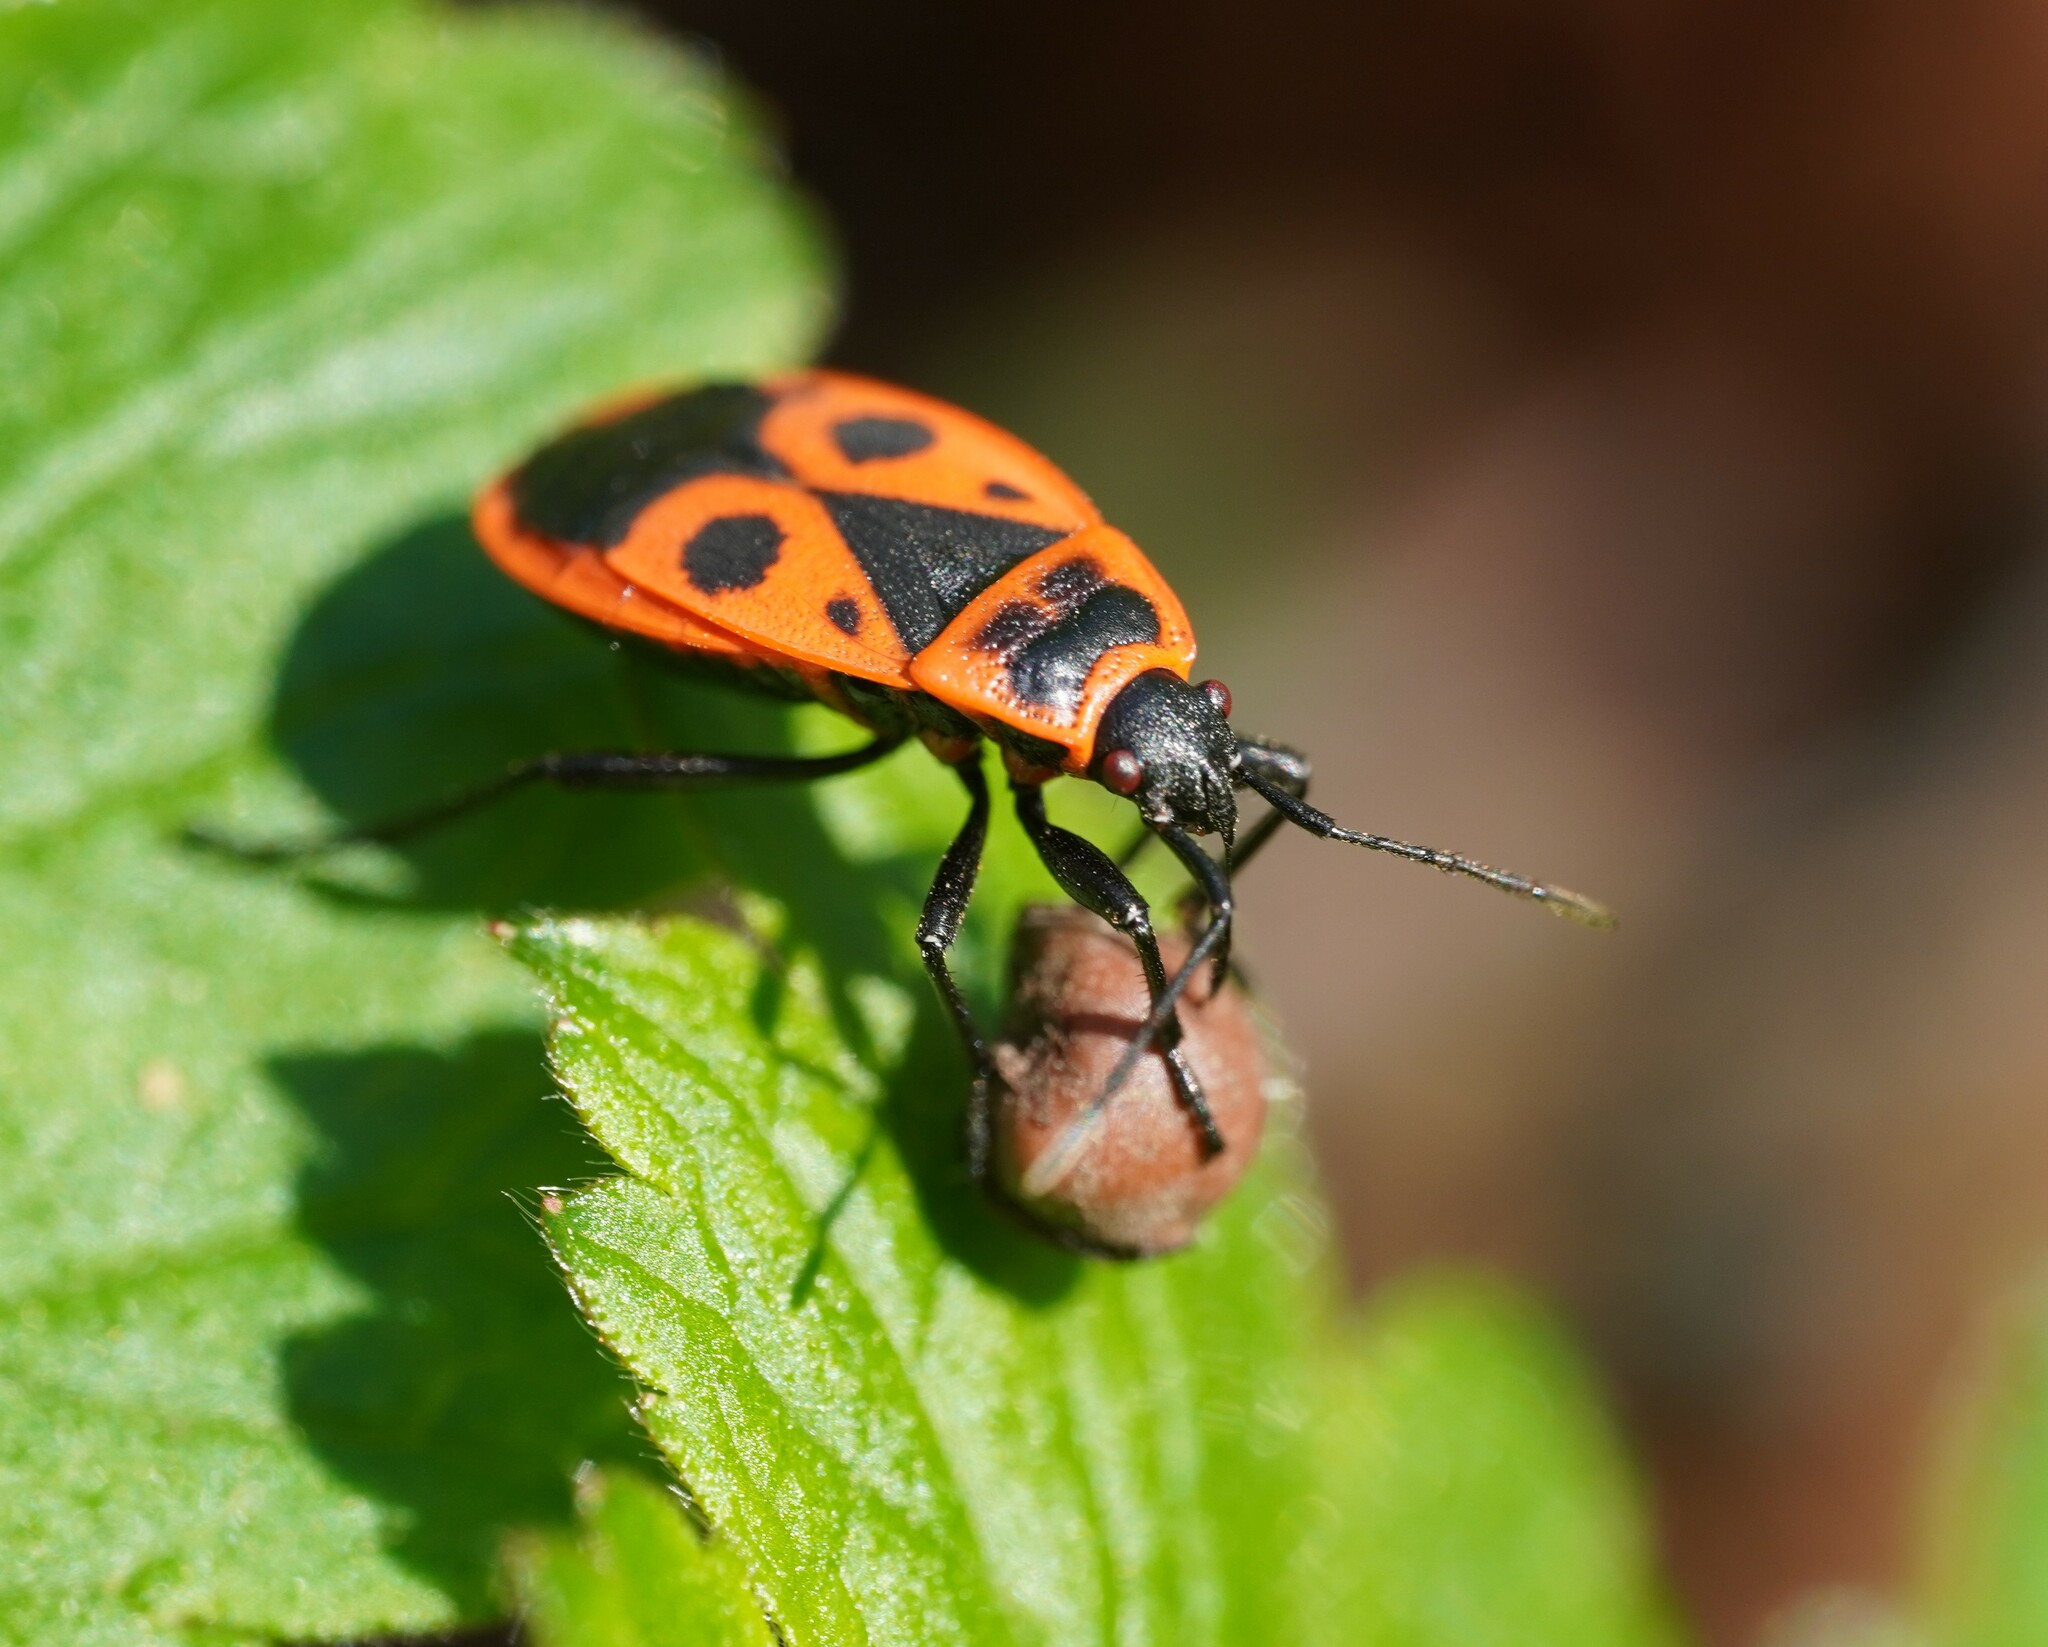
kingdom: Animalia
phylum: Arthropoda
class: Insecta
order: Hemiptera
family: Pyrrhocoridae
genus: Pyrrhocoris
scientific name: Pyrrhocoris apterus
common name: Firebug
